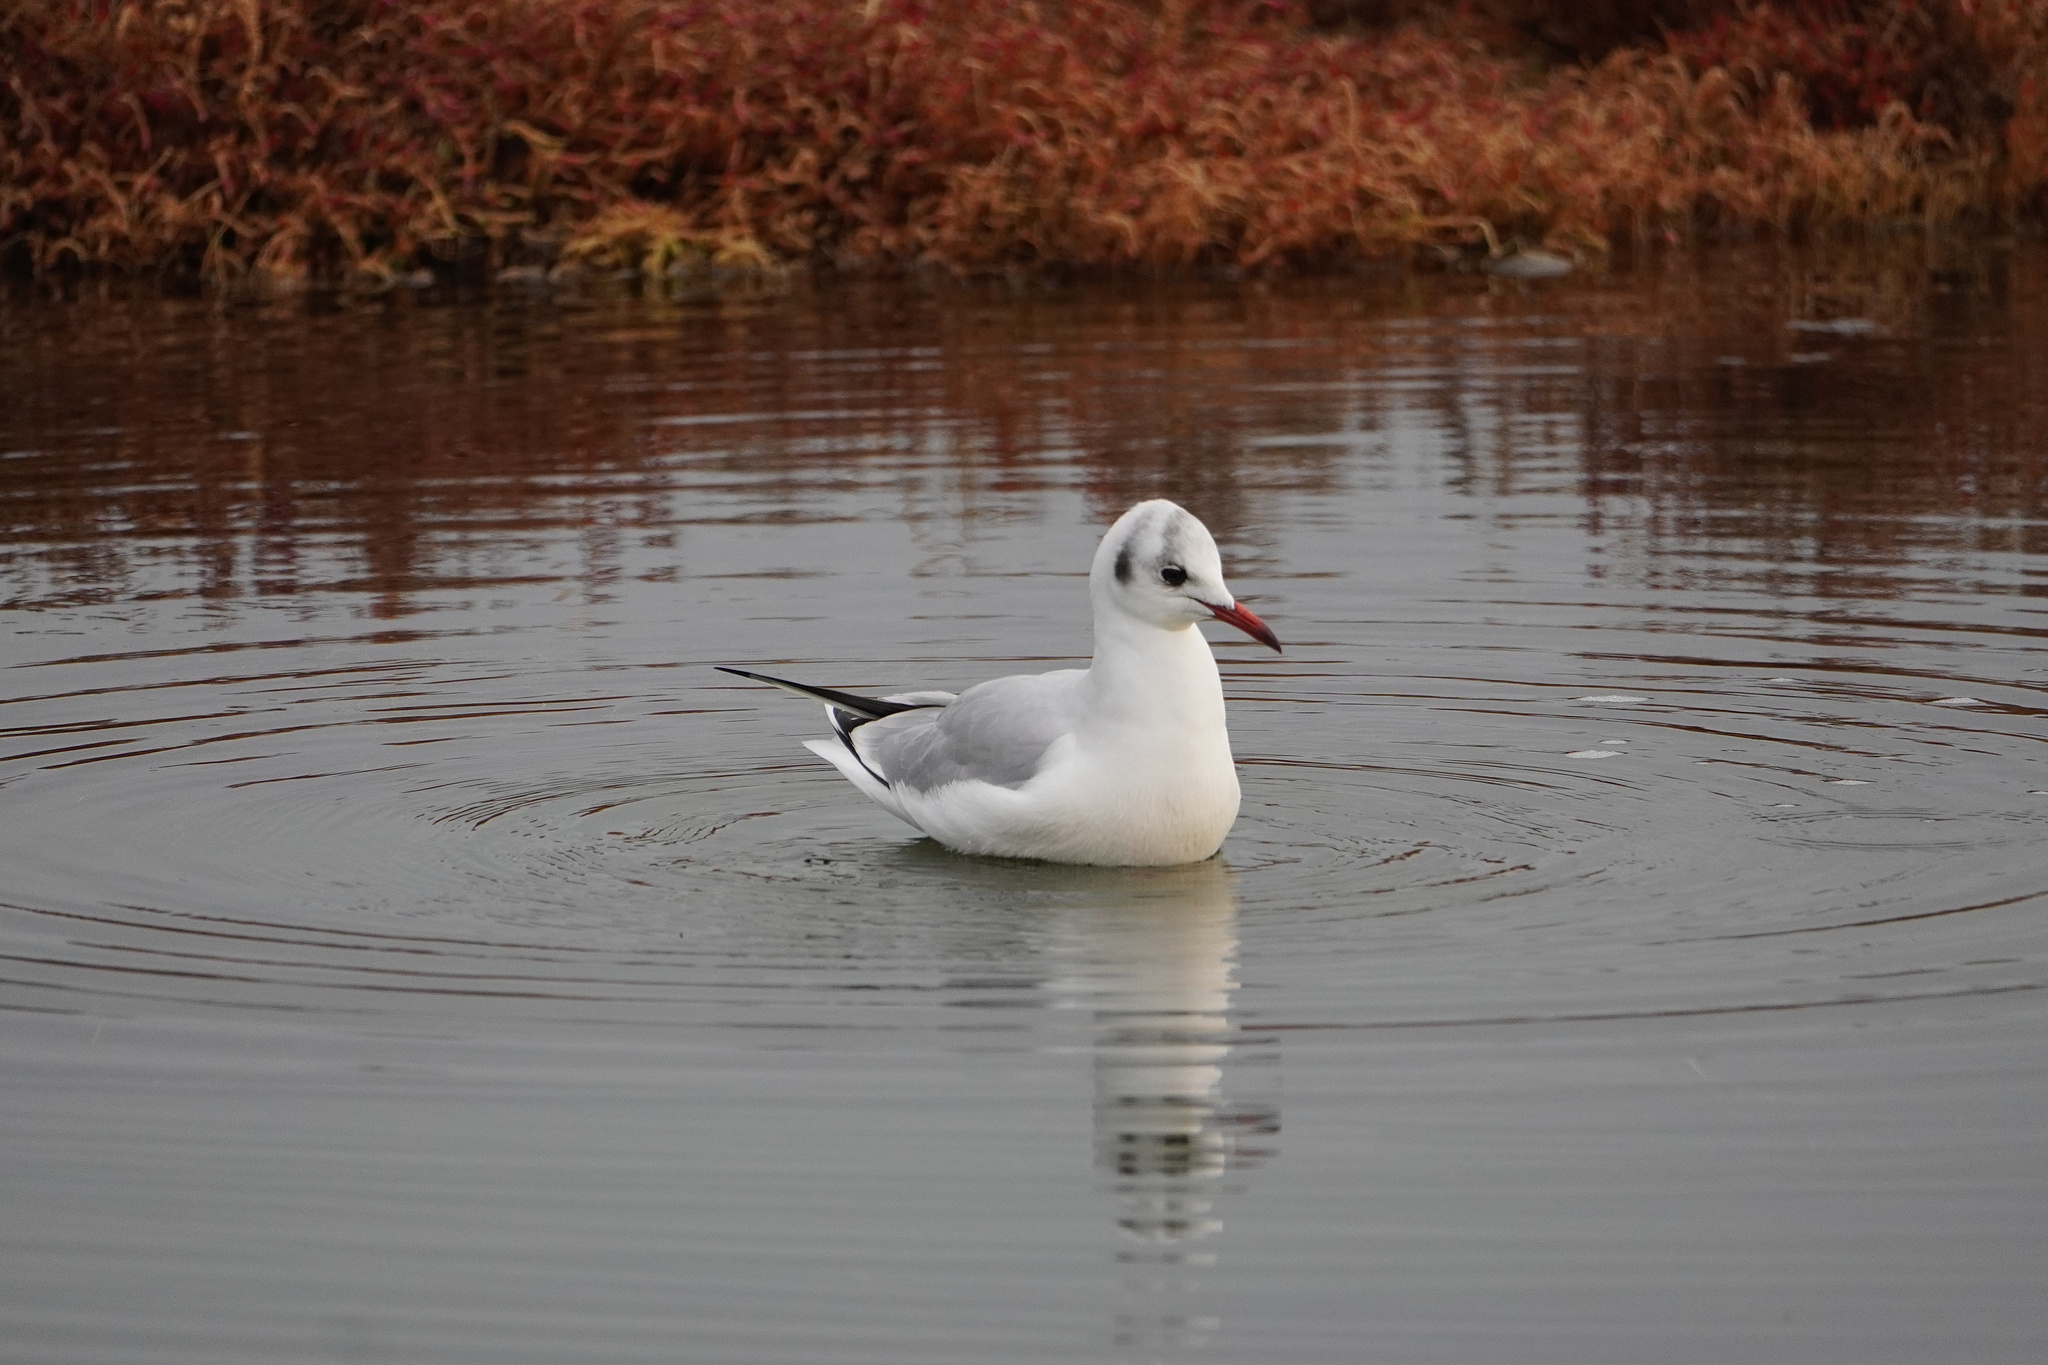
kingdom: Animalia
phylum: Chordata
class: Aves
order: Charadriiformes
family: Laridae
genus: Chroicocephalus
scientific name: Chroicocephalus ridibundus
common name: Black-headed gull
